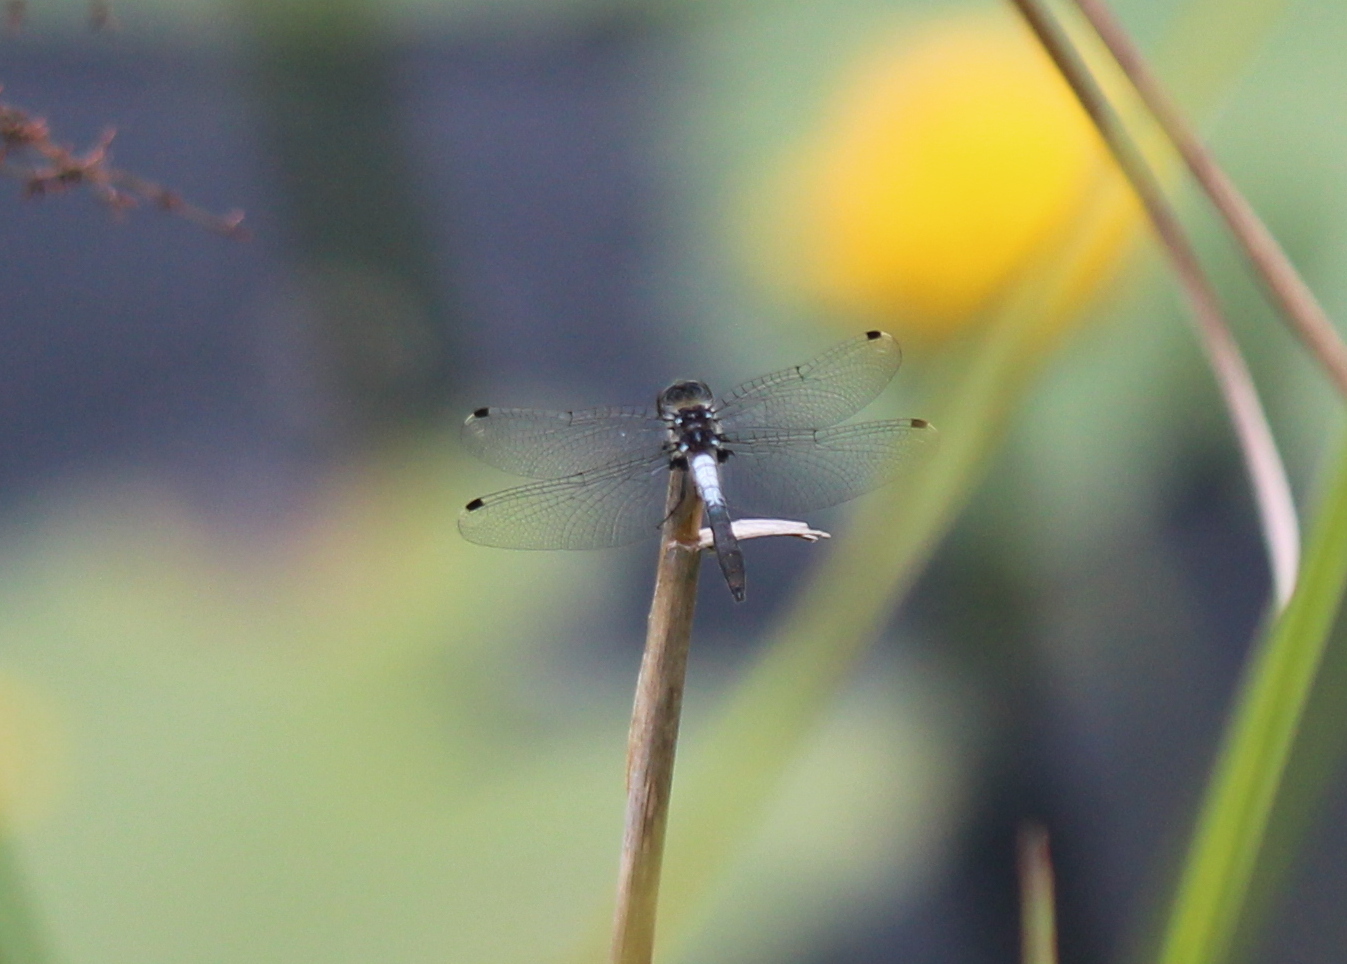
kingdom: Animalia
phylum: Arthropoda
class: Insecta
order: Odonata
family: Libellulidae
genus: Leucorrhinia
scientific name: Leucorrhinia frigida
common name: Frosted whiteface
